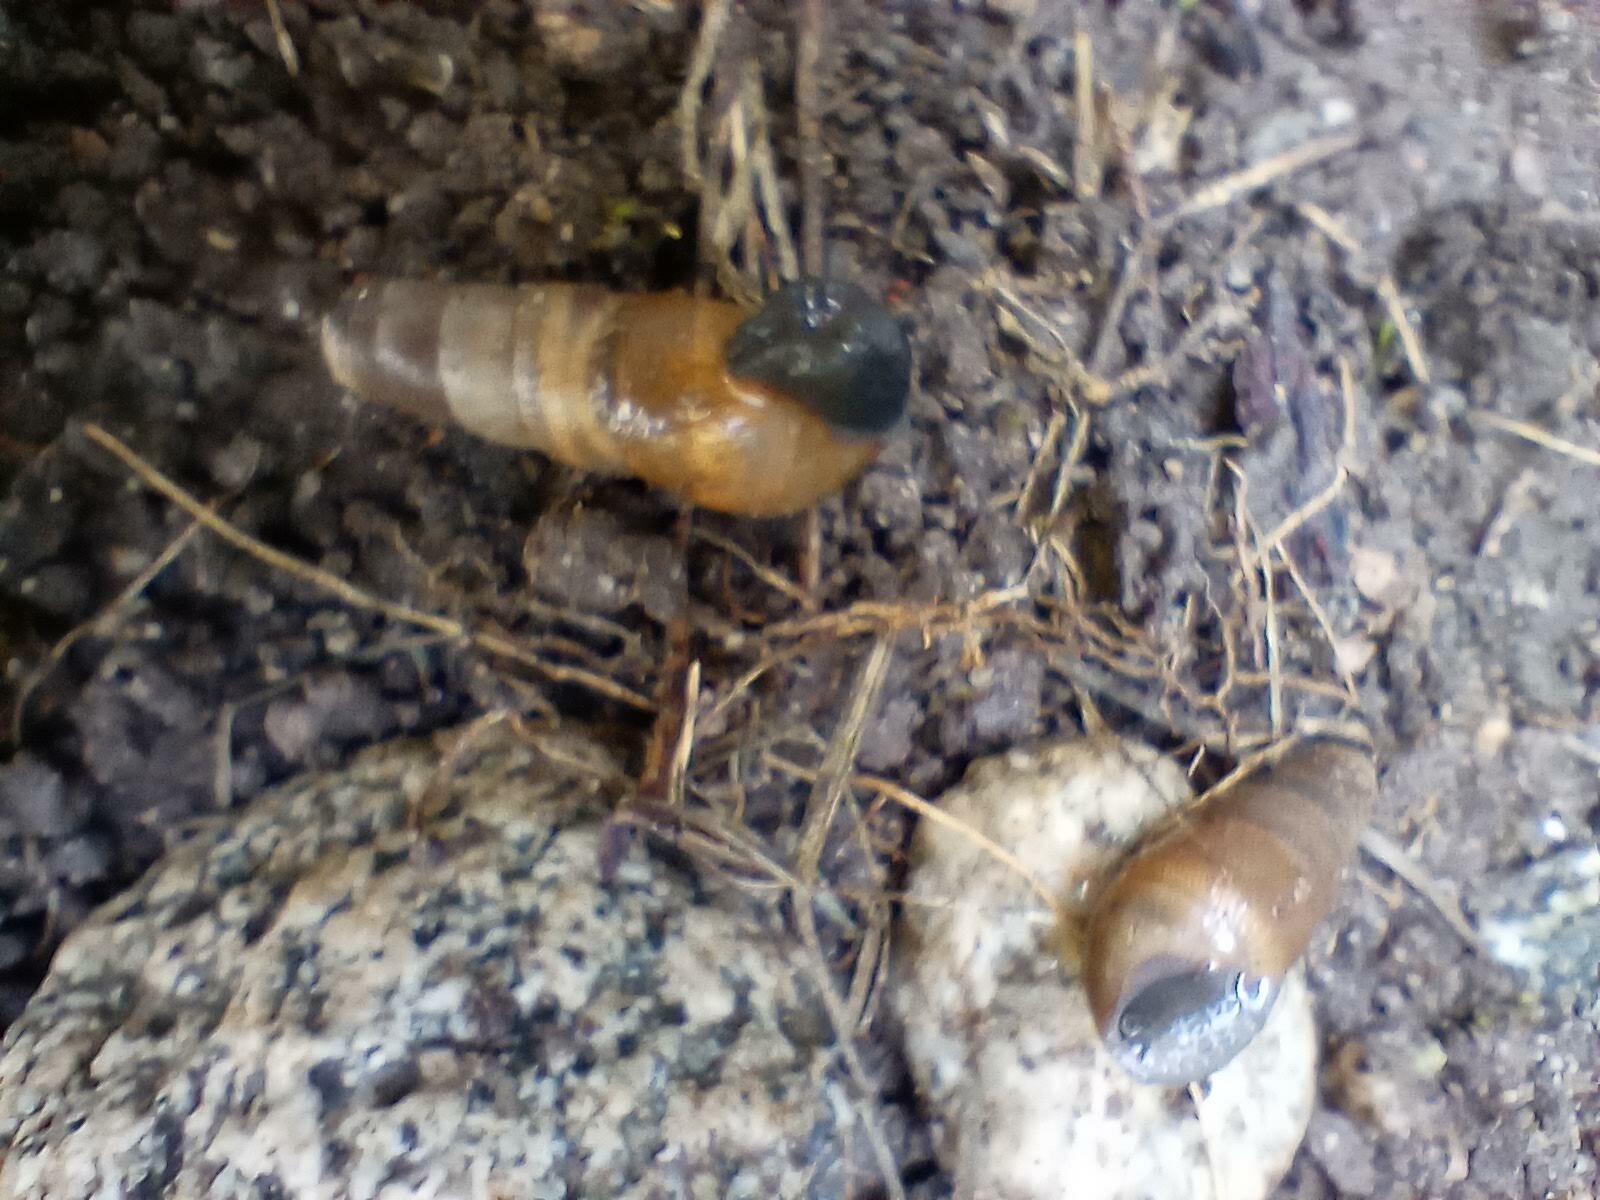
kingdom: Animalia
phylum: Mollusca
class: Gastropoda
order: Stylommatophora
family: Achatinidae
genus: Rumina
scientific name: Rumina decollata
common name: Decollate snail
